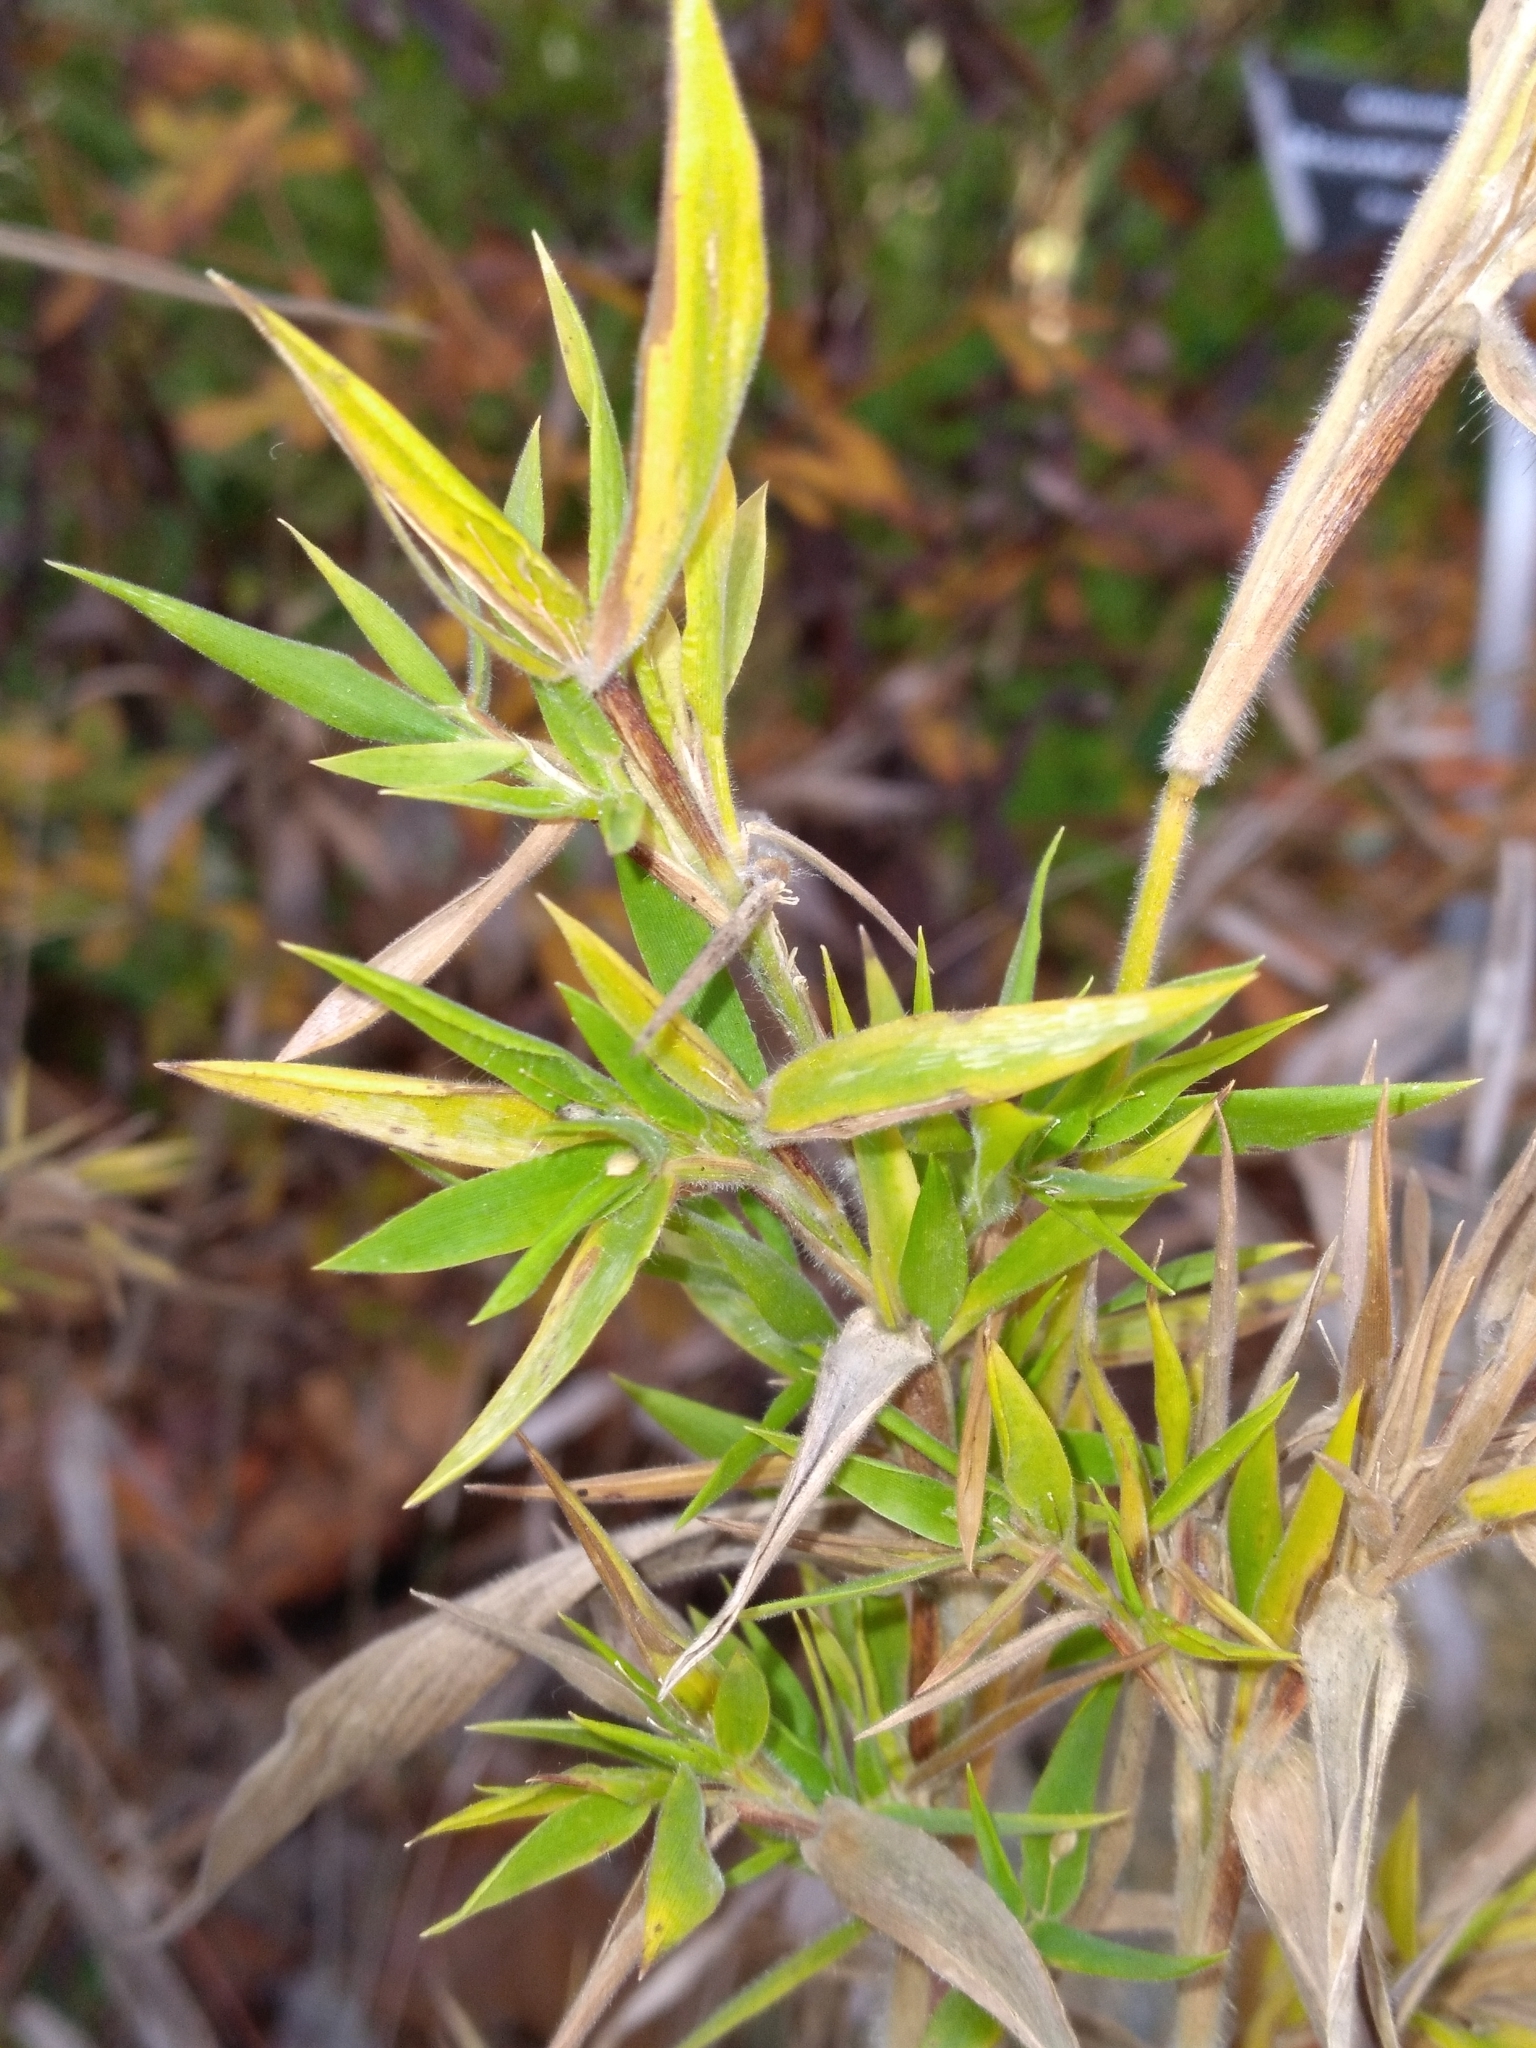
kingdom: Plantae
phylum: Tracheophyta
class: Liliopsida
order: Poales
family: Poaceae
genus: Dichanthelium
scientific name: Dichanthelium scoparium
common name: Velvety panic grass
